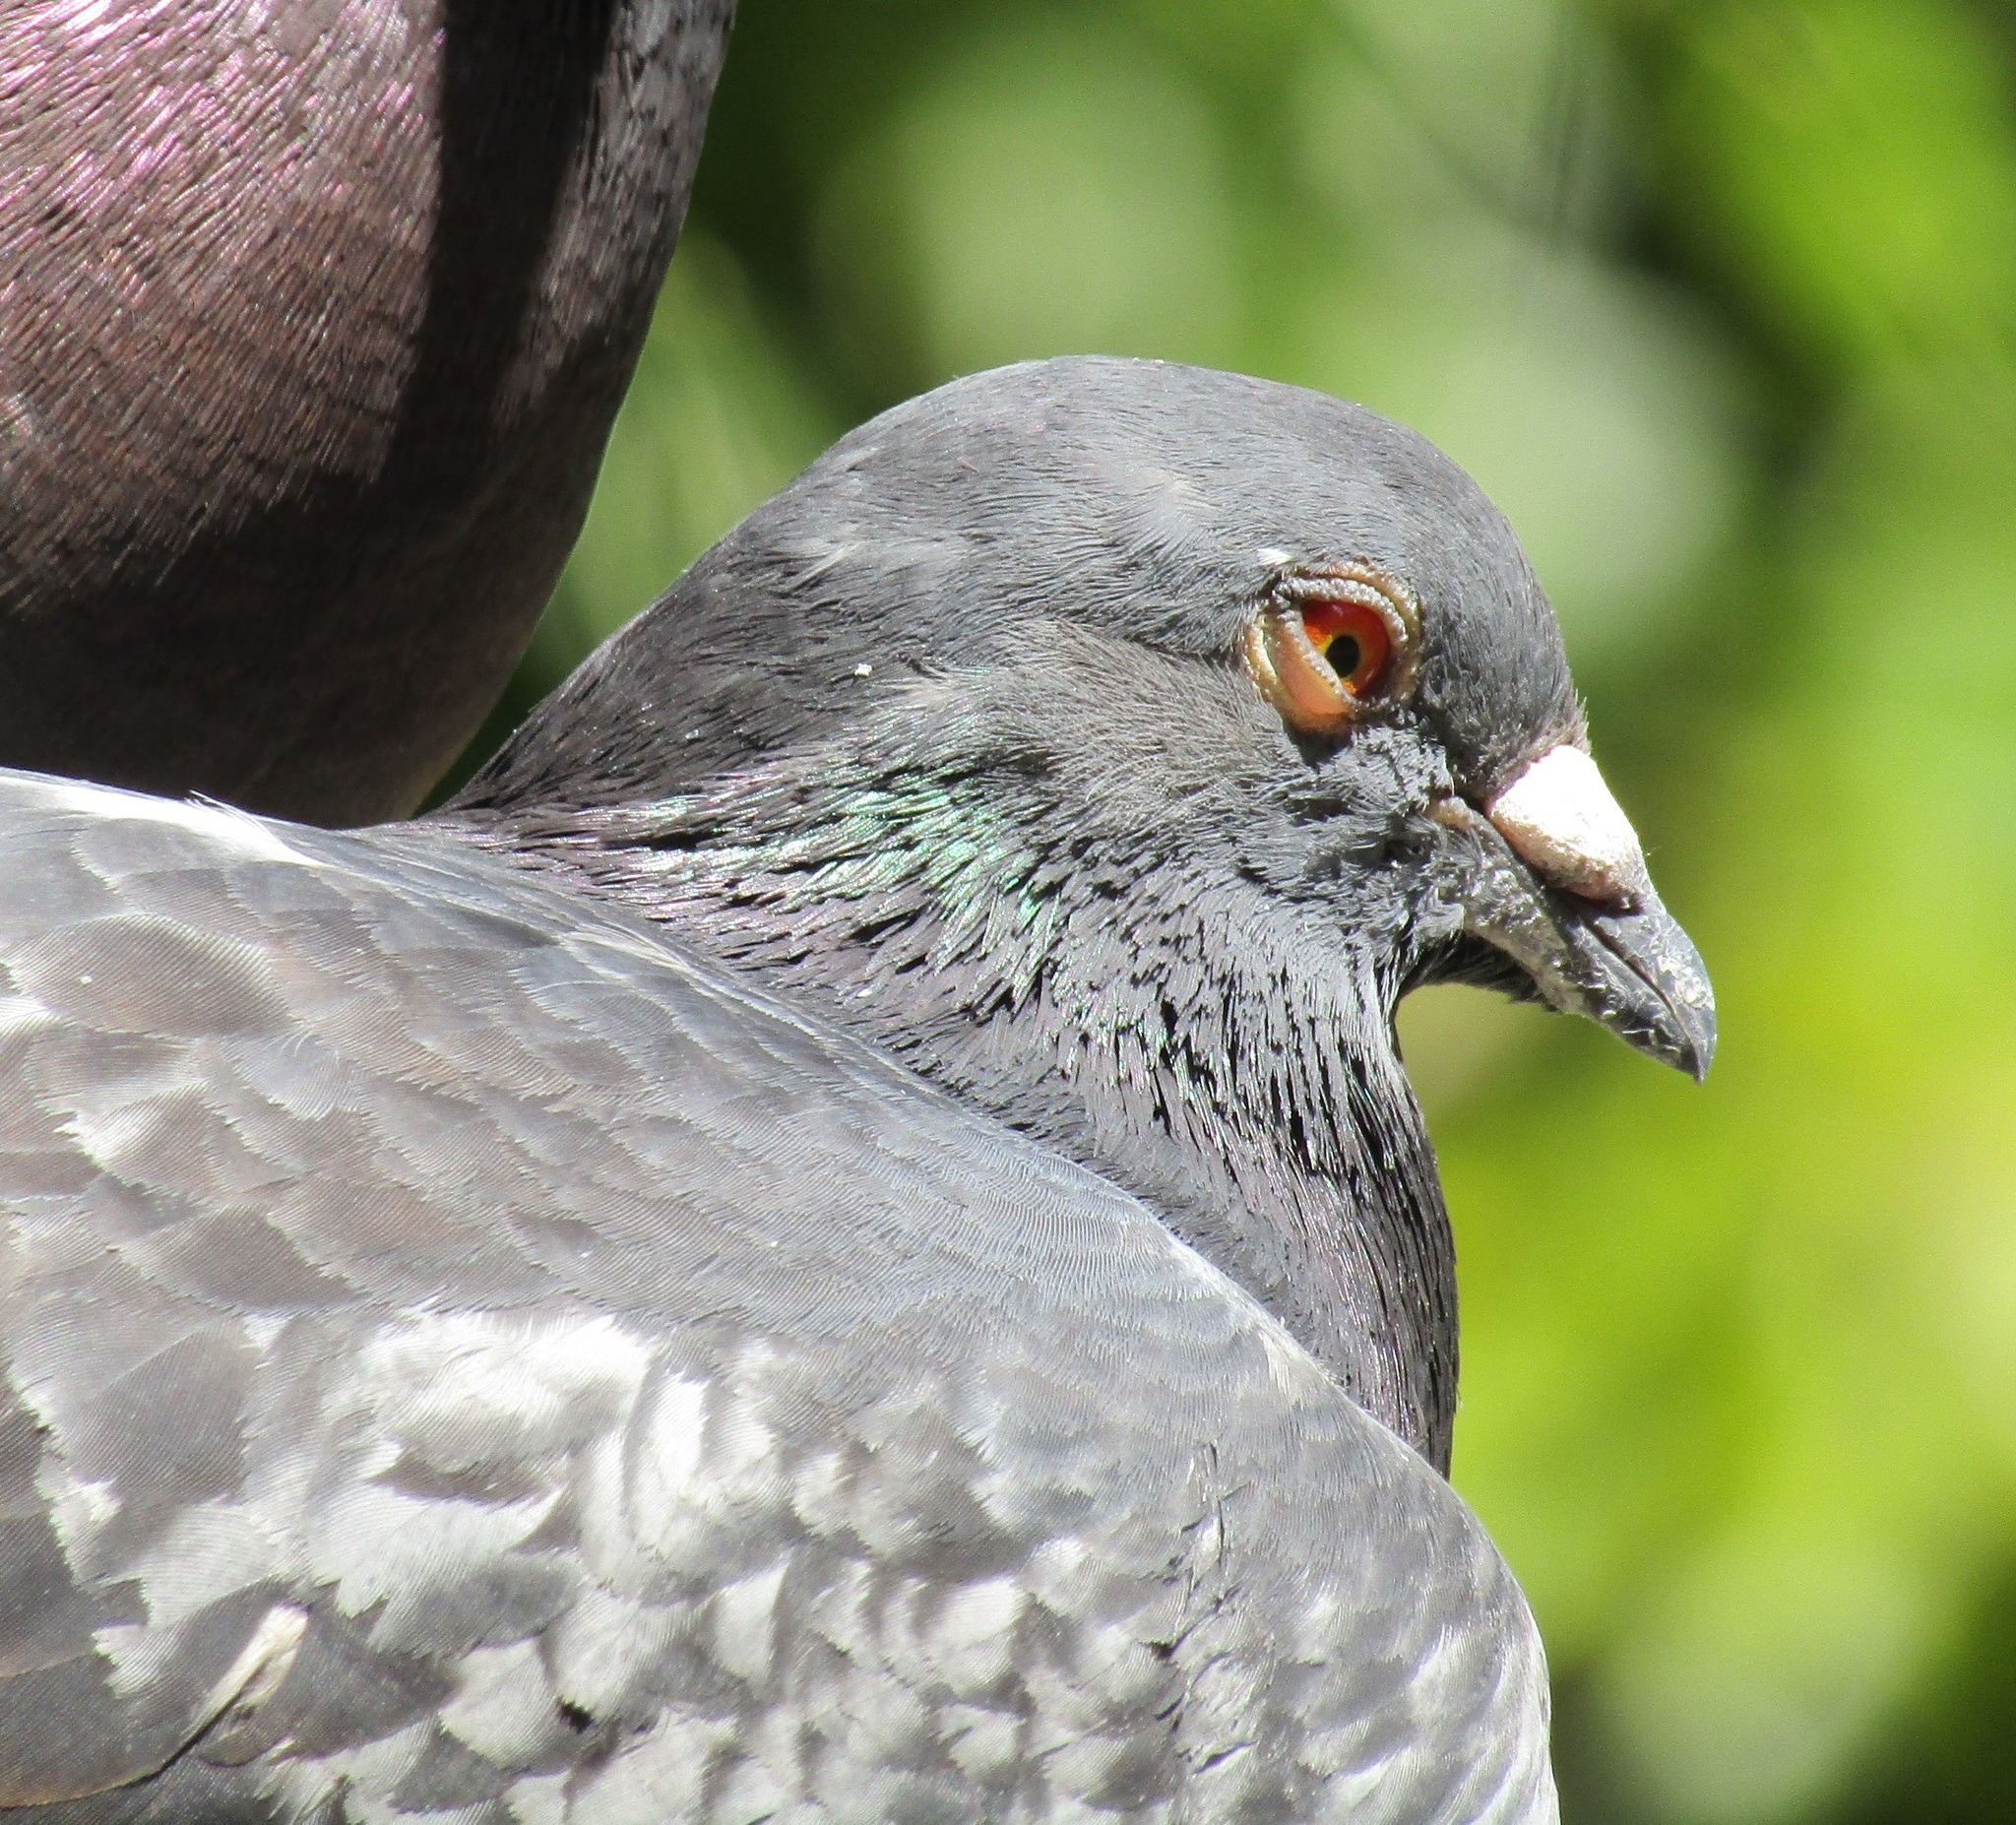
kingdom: Animalia
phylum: Chordata
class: Aves
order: Columbiformes
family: Columbidae
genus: Columba
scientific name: Columba livia
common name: Rock pigeon
